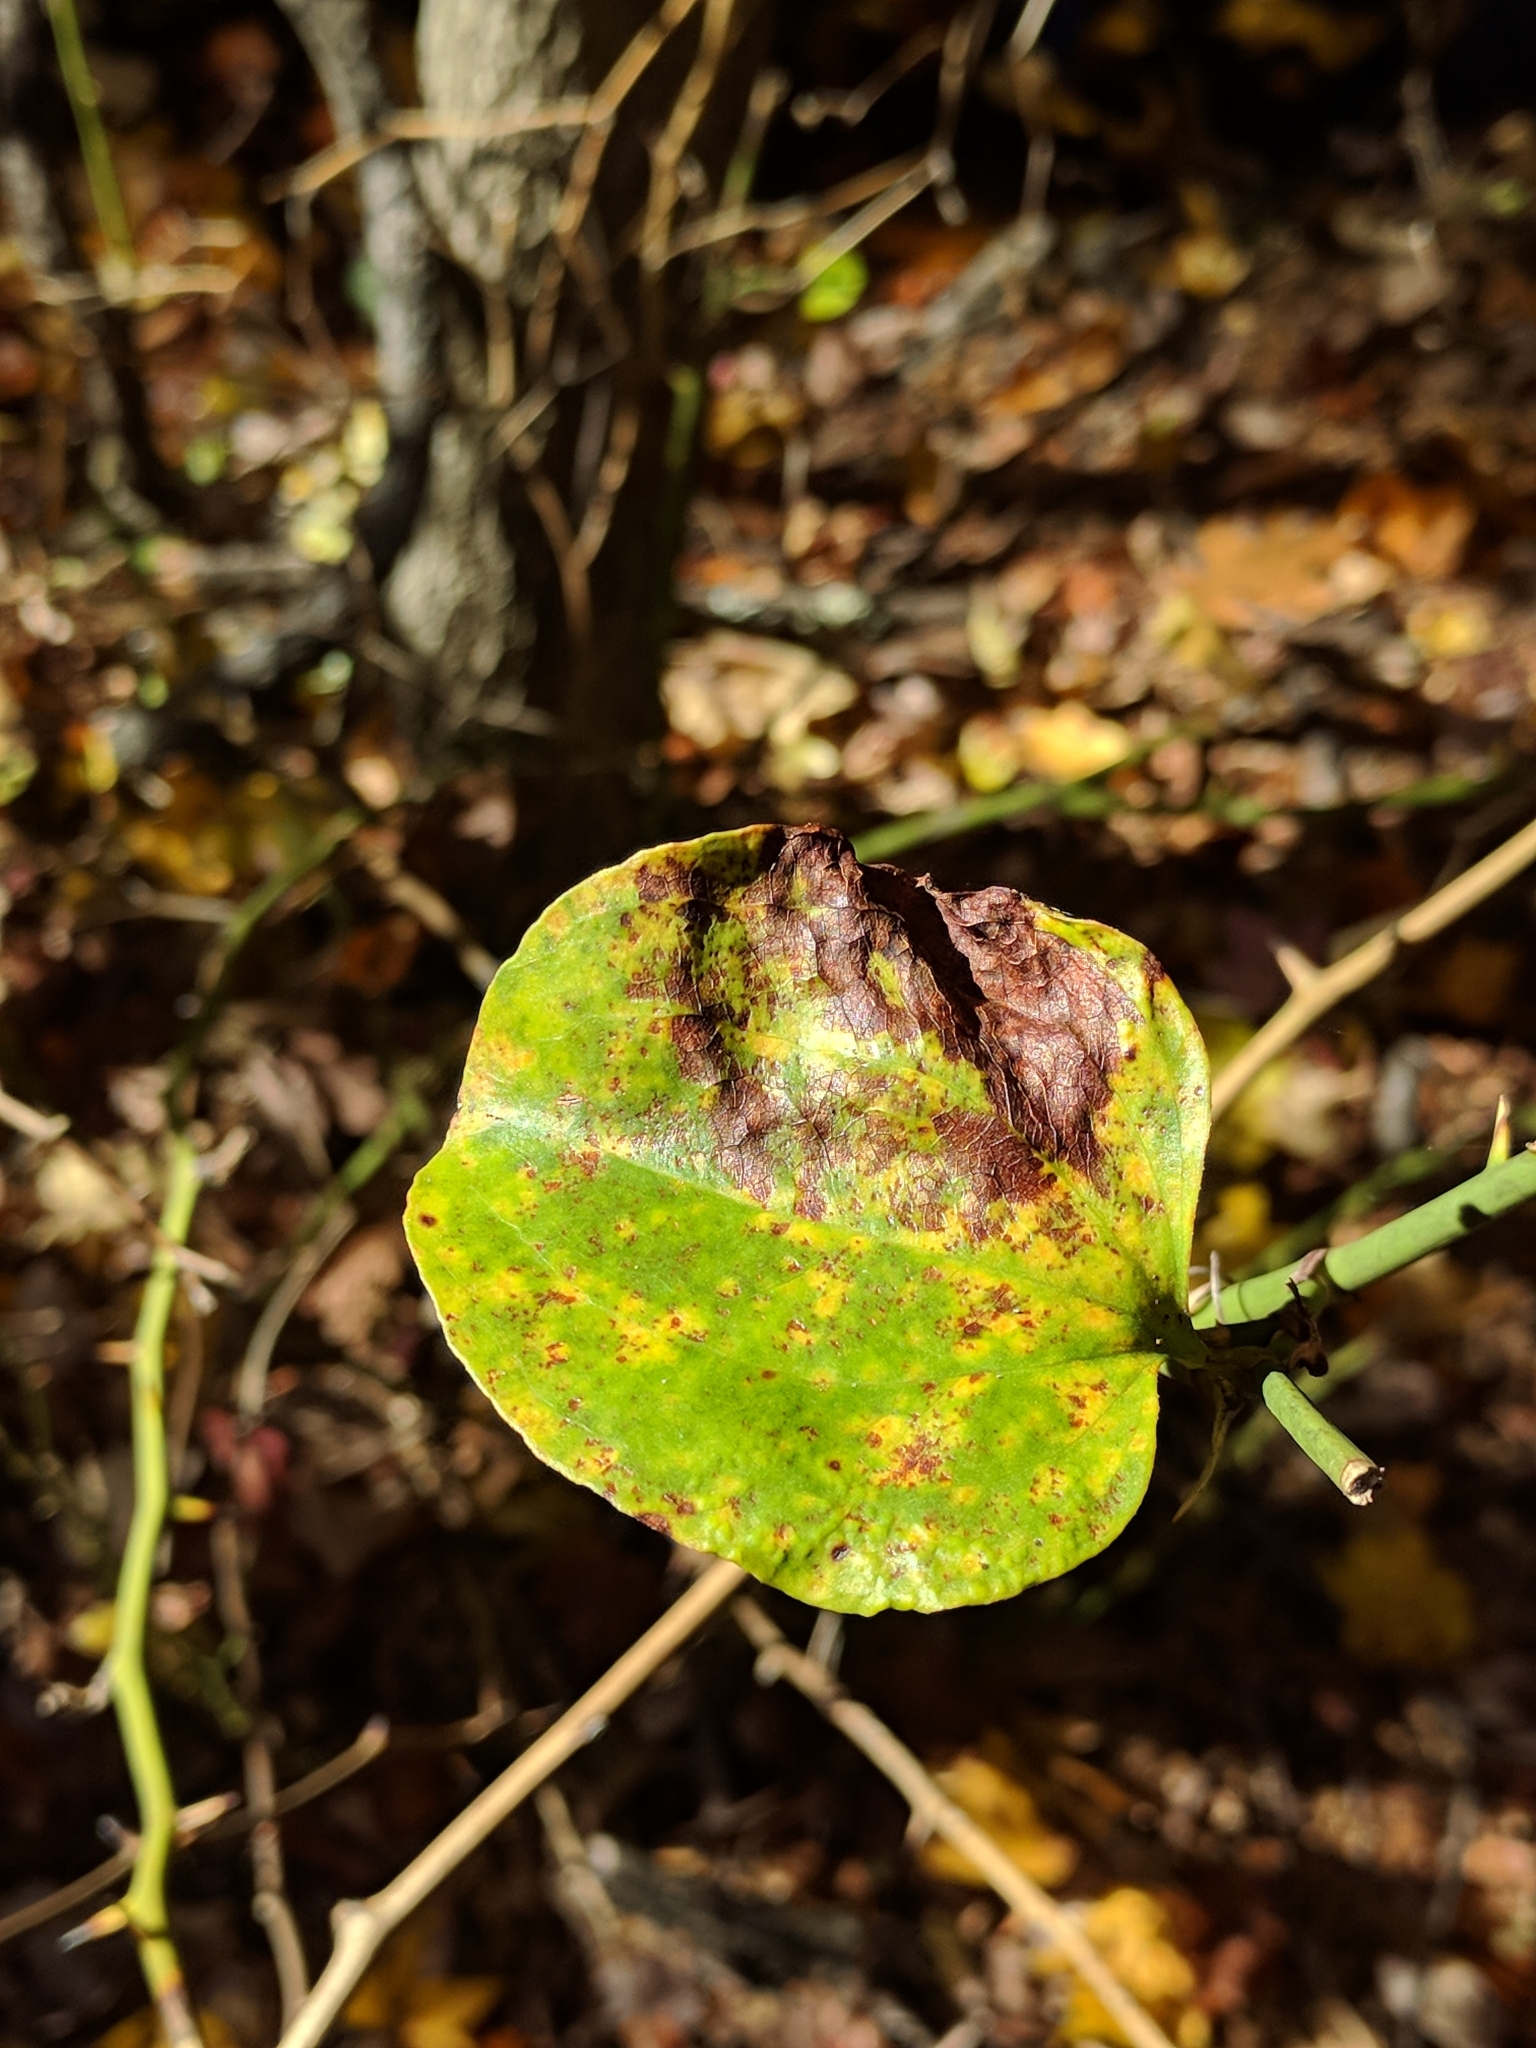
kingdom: Plantae
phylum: Tracheophyta
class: Liliopsida
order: Liliales
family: Smilacaceae
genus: Smilax
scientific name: Smilax rotundifolia
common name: Bullbriar
